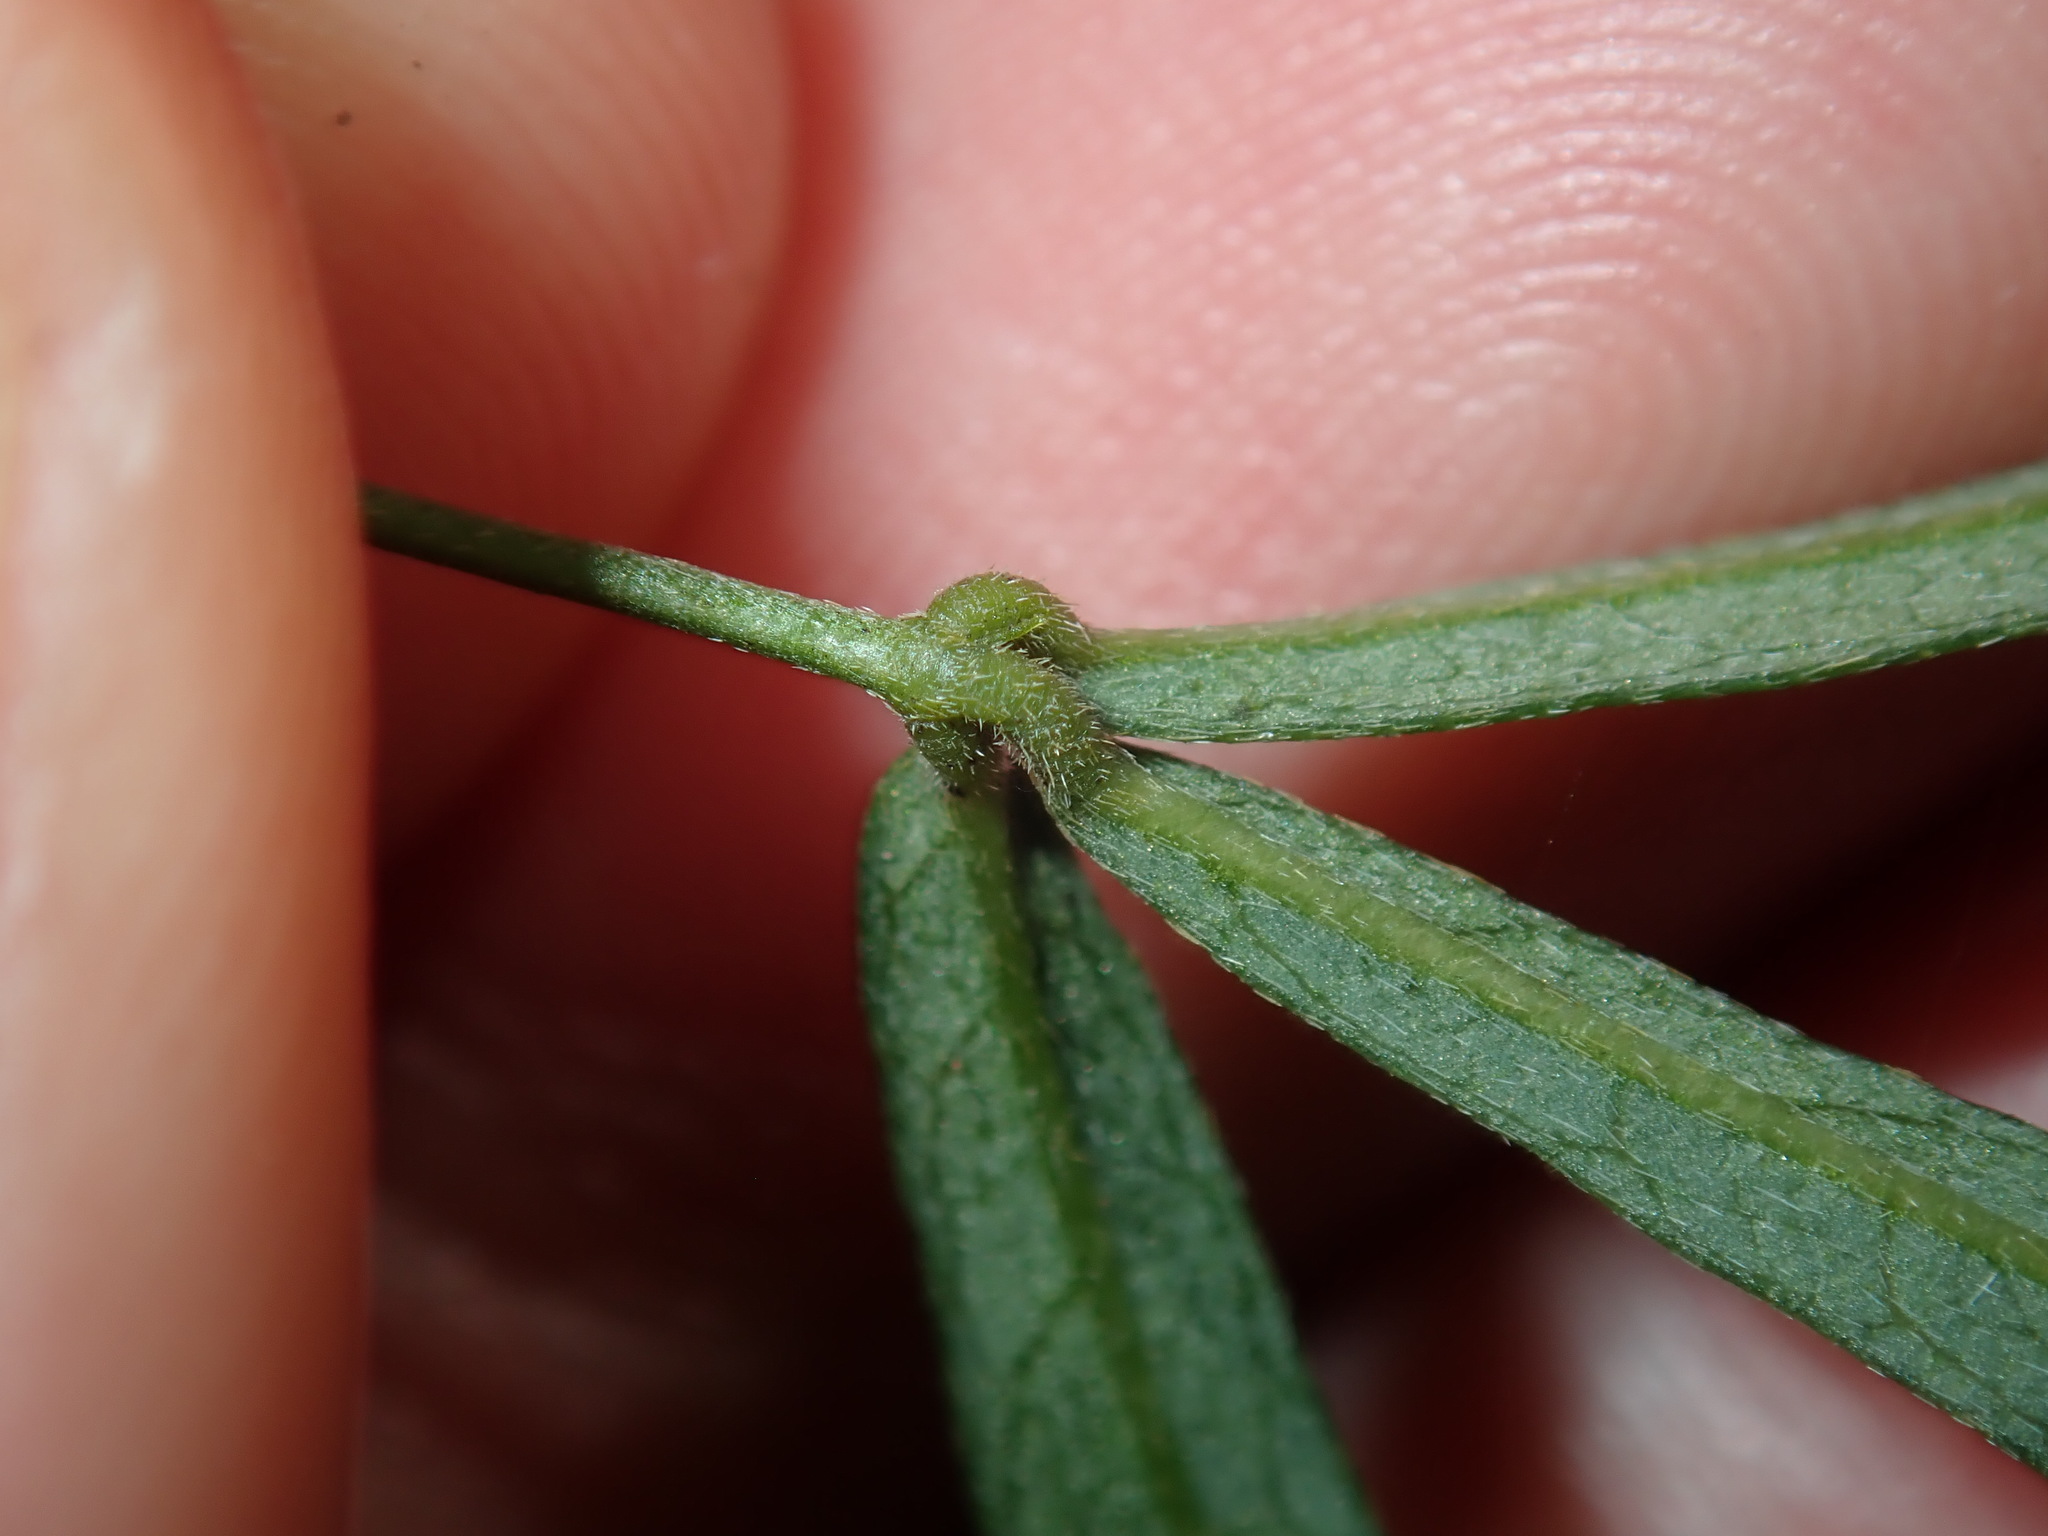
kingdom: Plantae
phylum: Tracheophyta
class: Magnoliopsida
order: Fabales
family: Fabaceae
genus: Glycine
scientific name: Glycine clandestina
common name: Twining glycine
